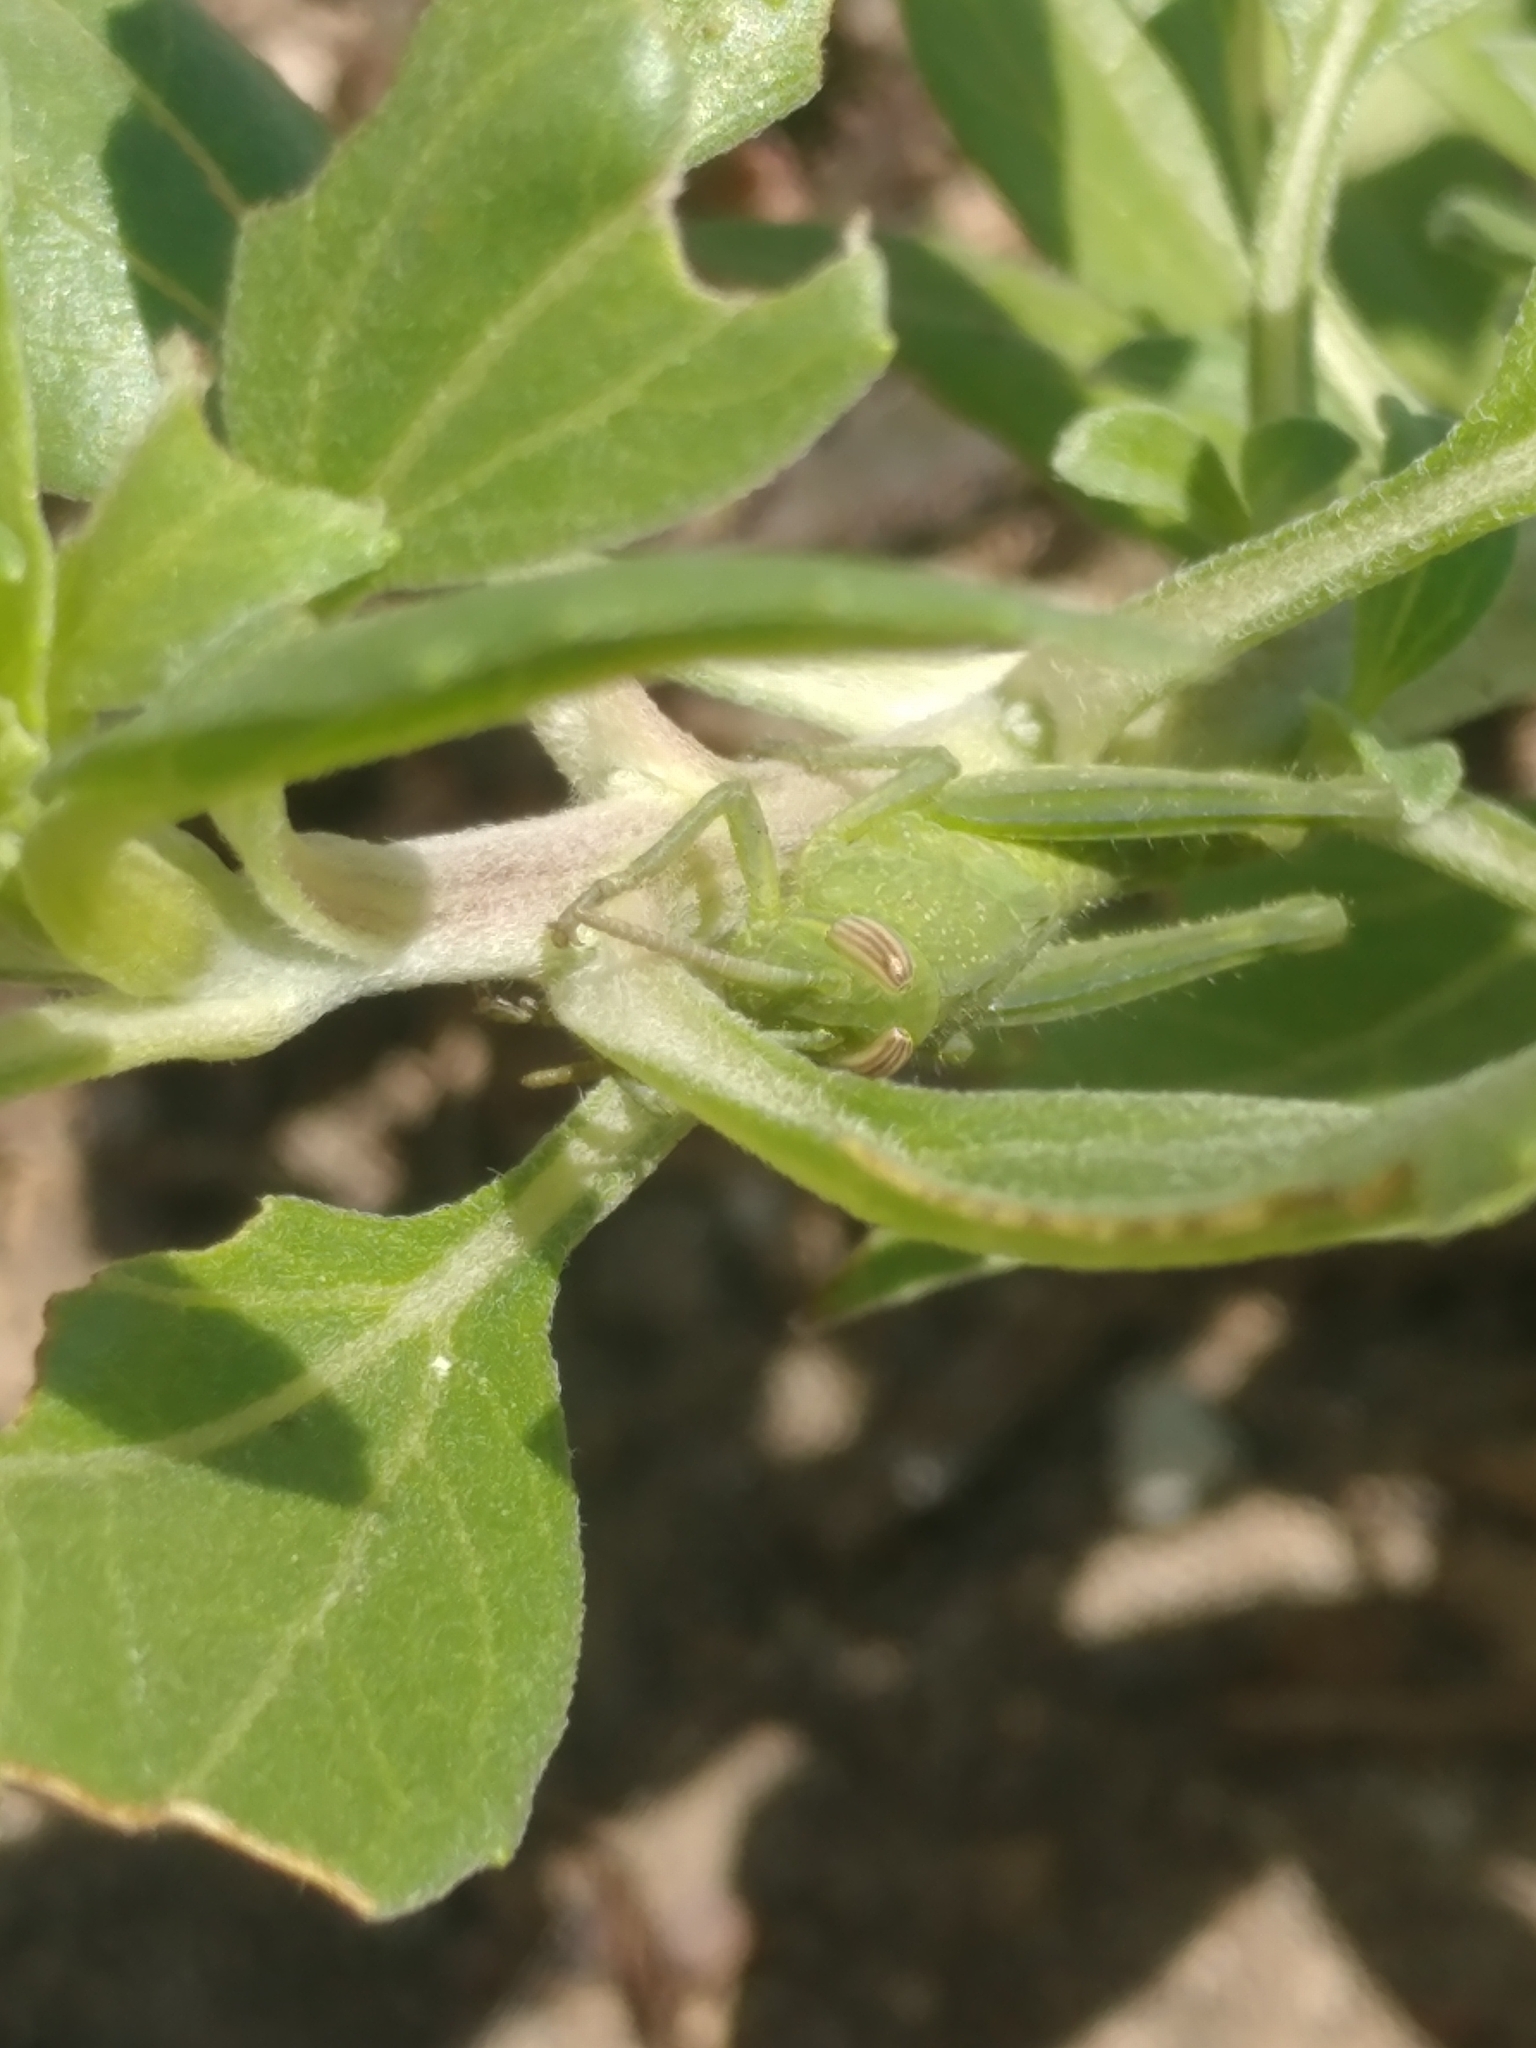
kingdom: Animalia
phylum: Arthropoda
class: Insecta
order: Orthoptera
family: Acrididae
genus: Schistocerca
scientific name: Schistocerca nitens
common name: Vagrant grasshopper
